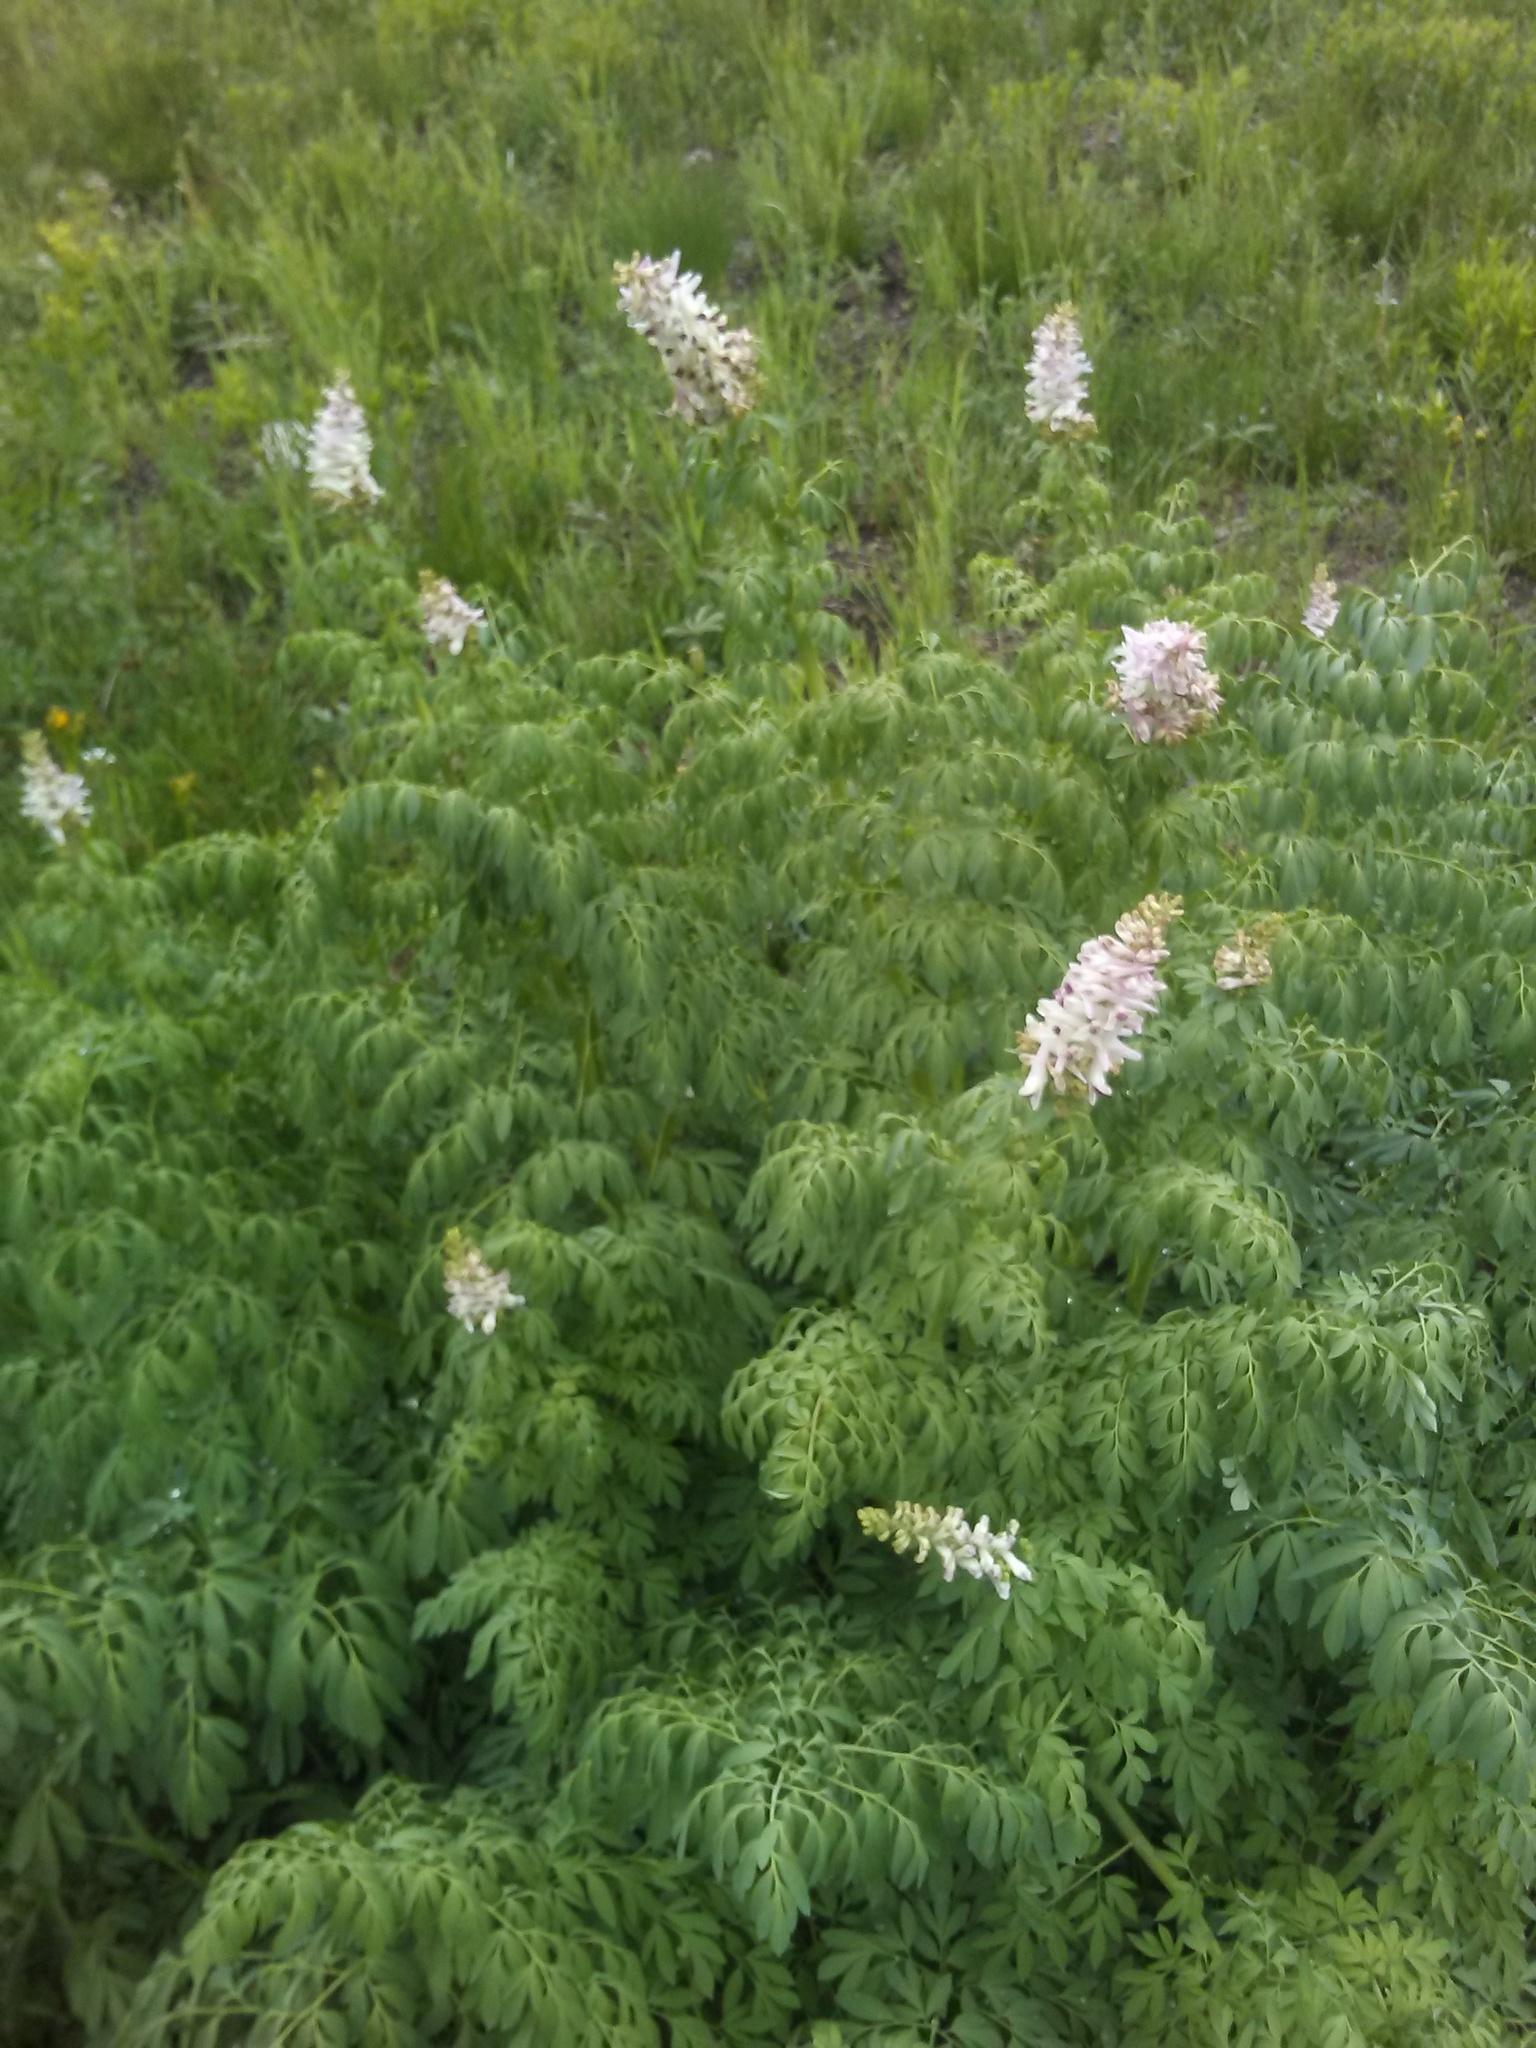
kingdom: Plantae
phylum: Tracheophyta
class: Magnoliopsida
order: Ranunculales
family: Papaveraceae
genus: Corydalis
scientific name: Corydalis caseana
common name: Fitweed
